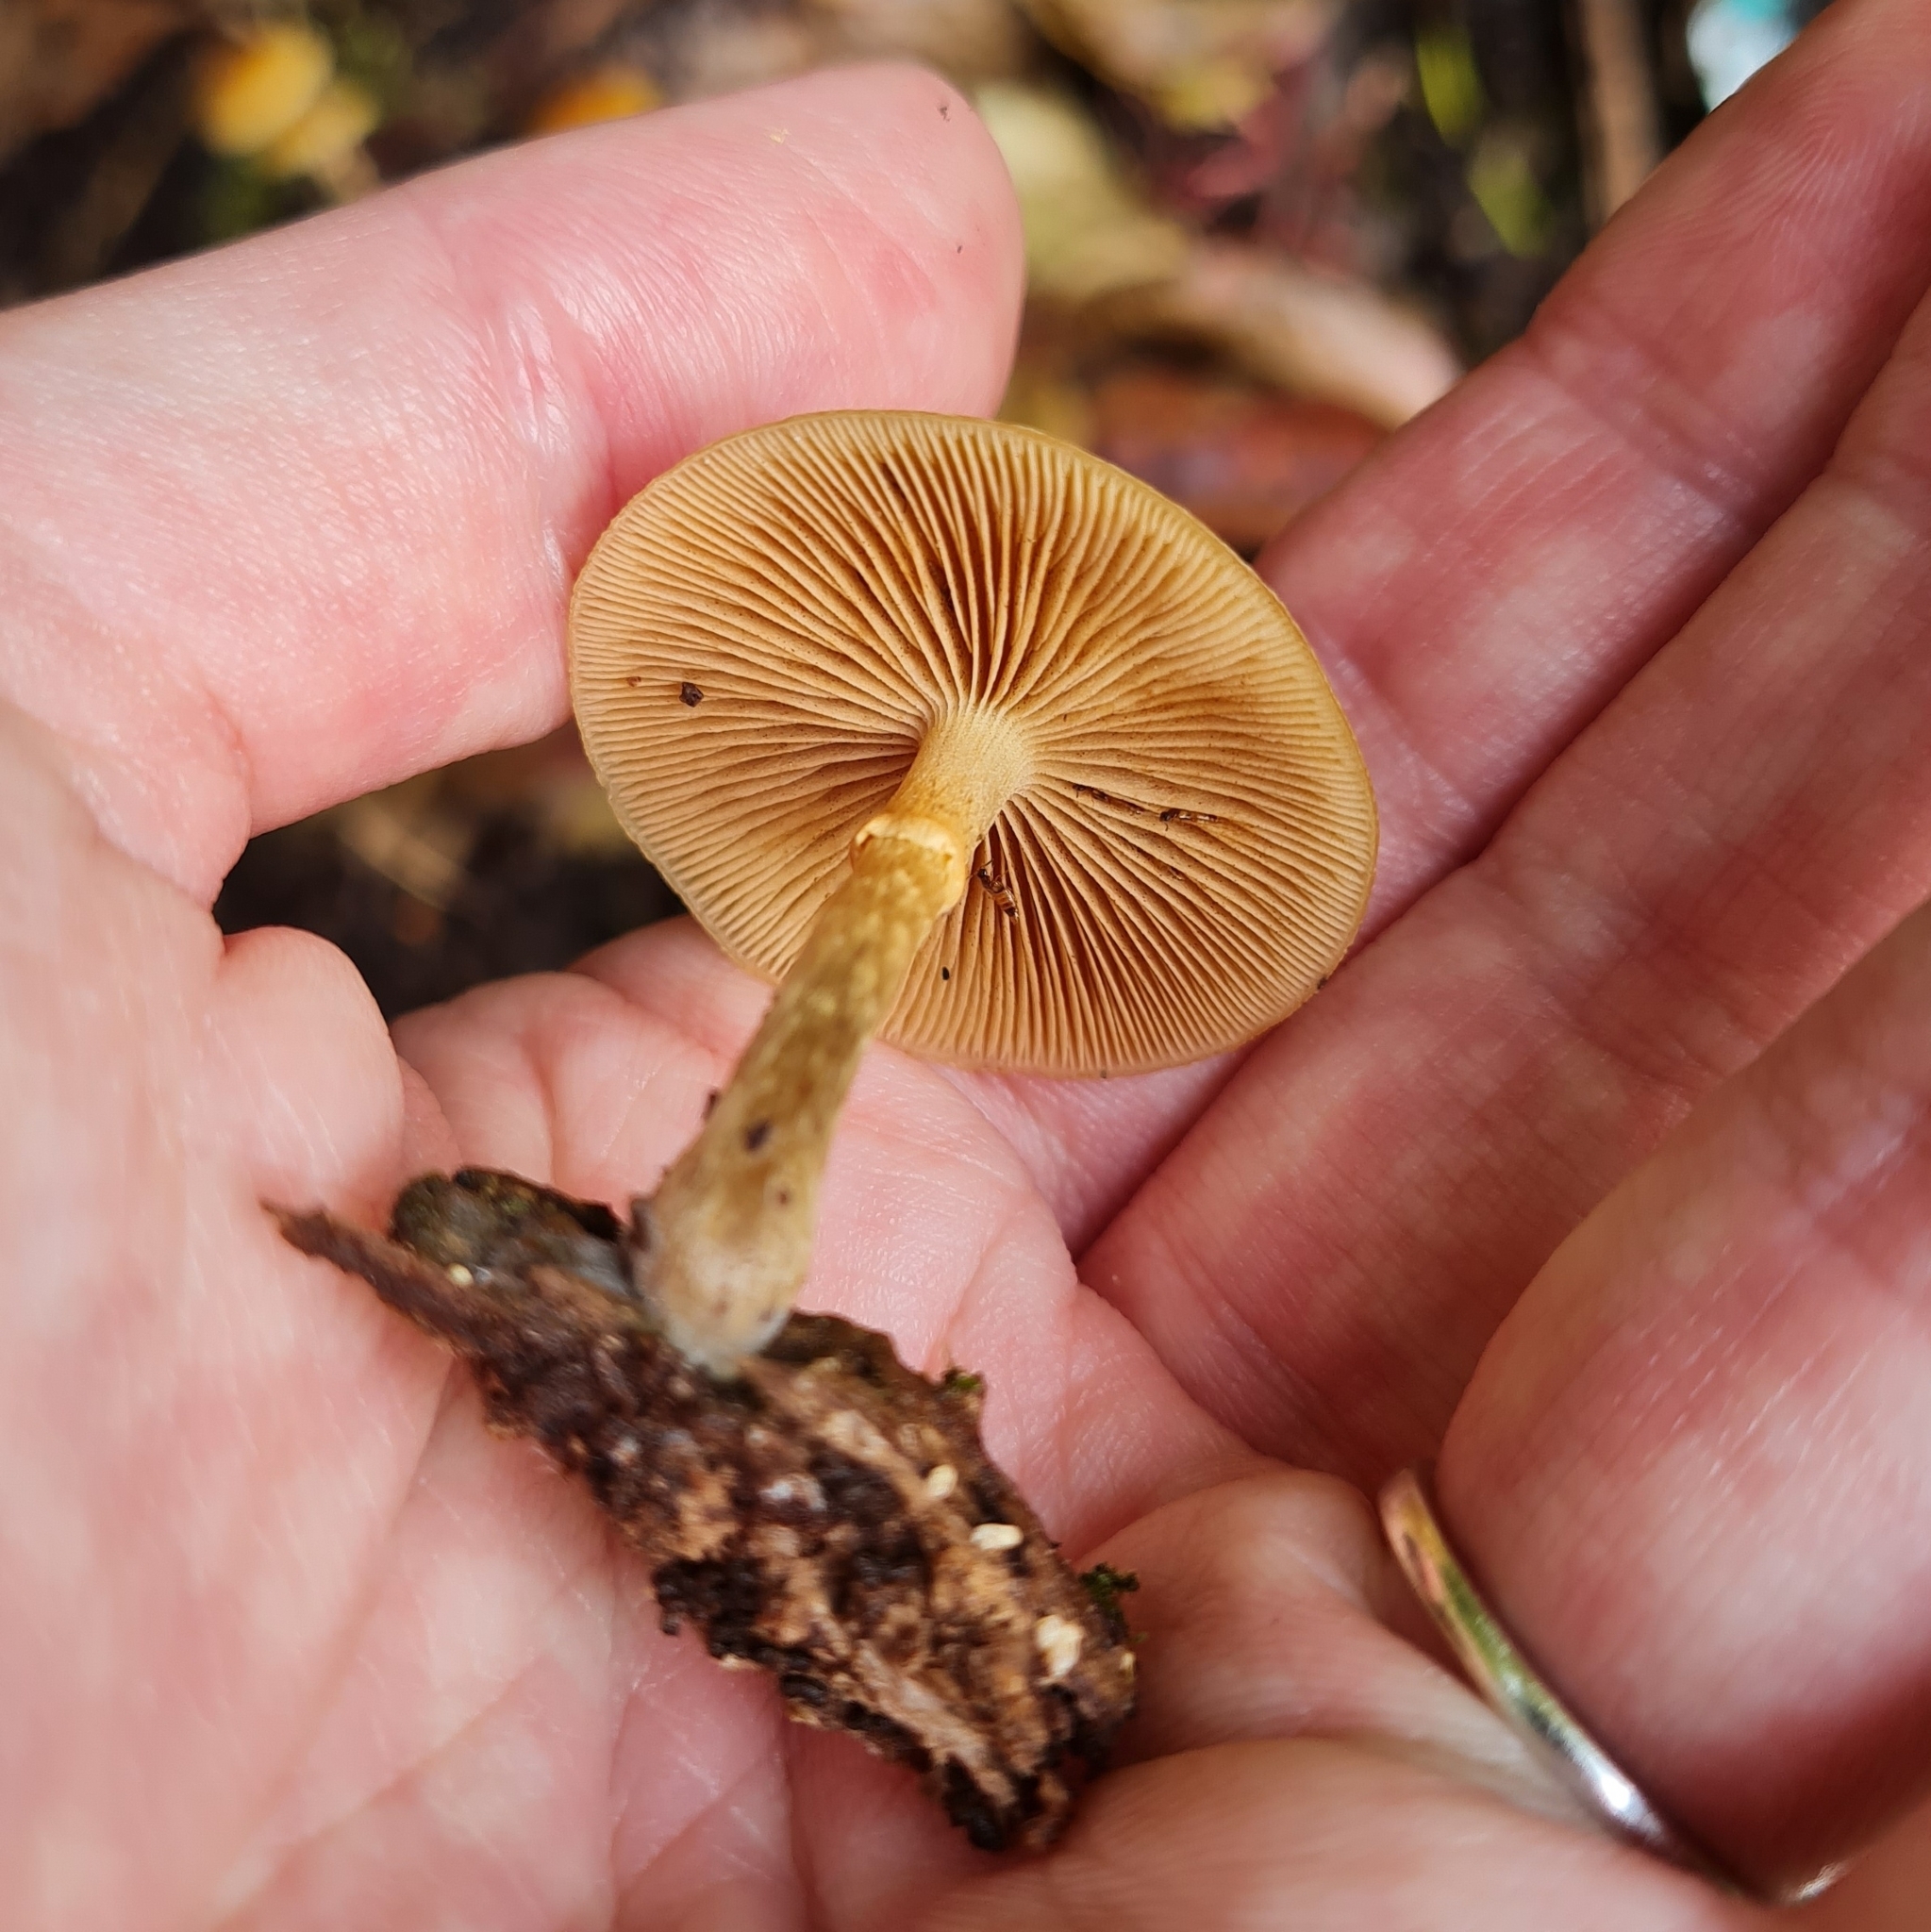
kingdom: Fungi
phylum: Basidiomycota
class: Agaricomycetes
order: Agaricales
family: Hymenogastraceae
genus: Galerina
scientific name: Galerina marginata
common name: Funeral bell
